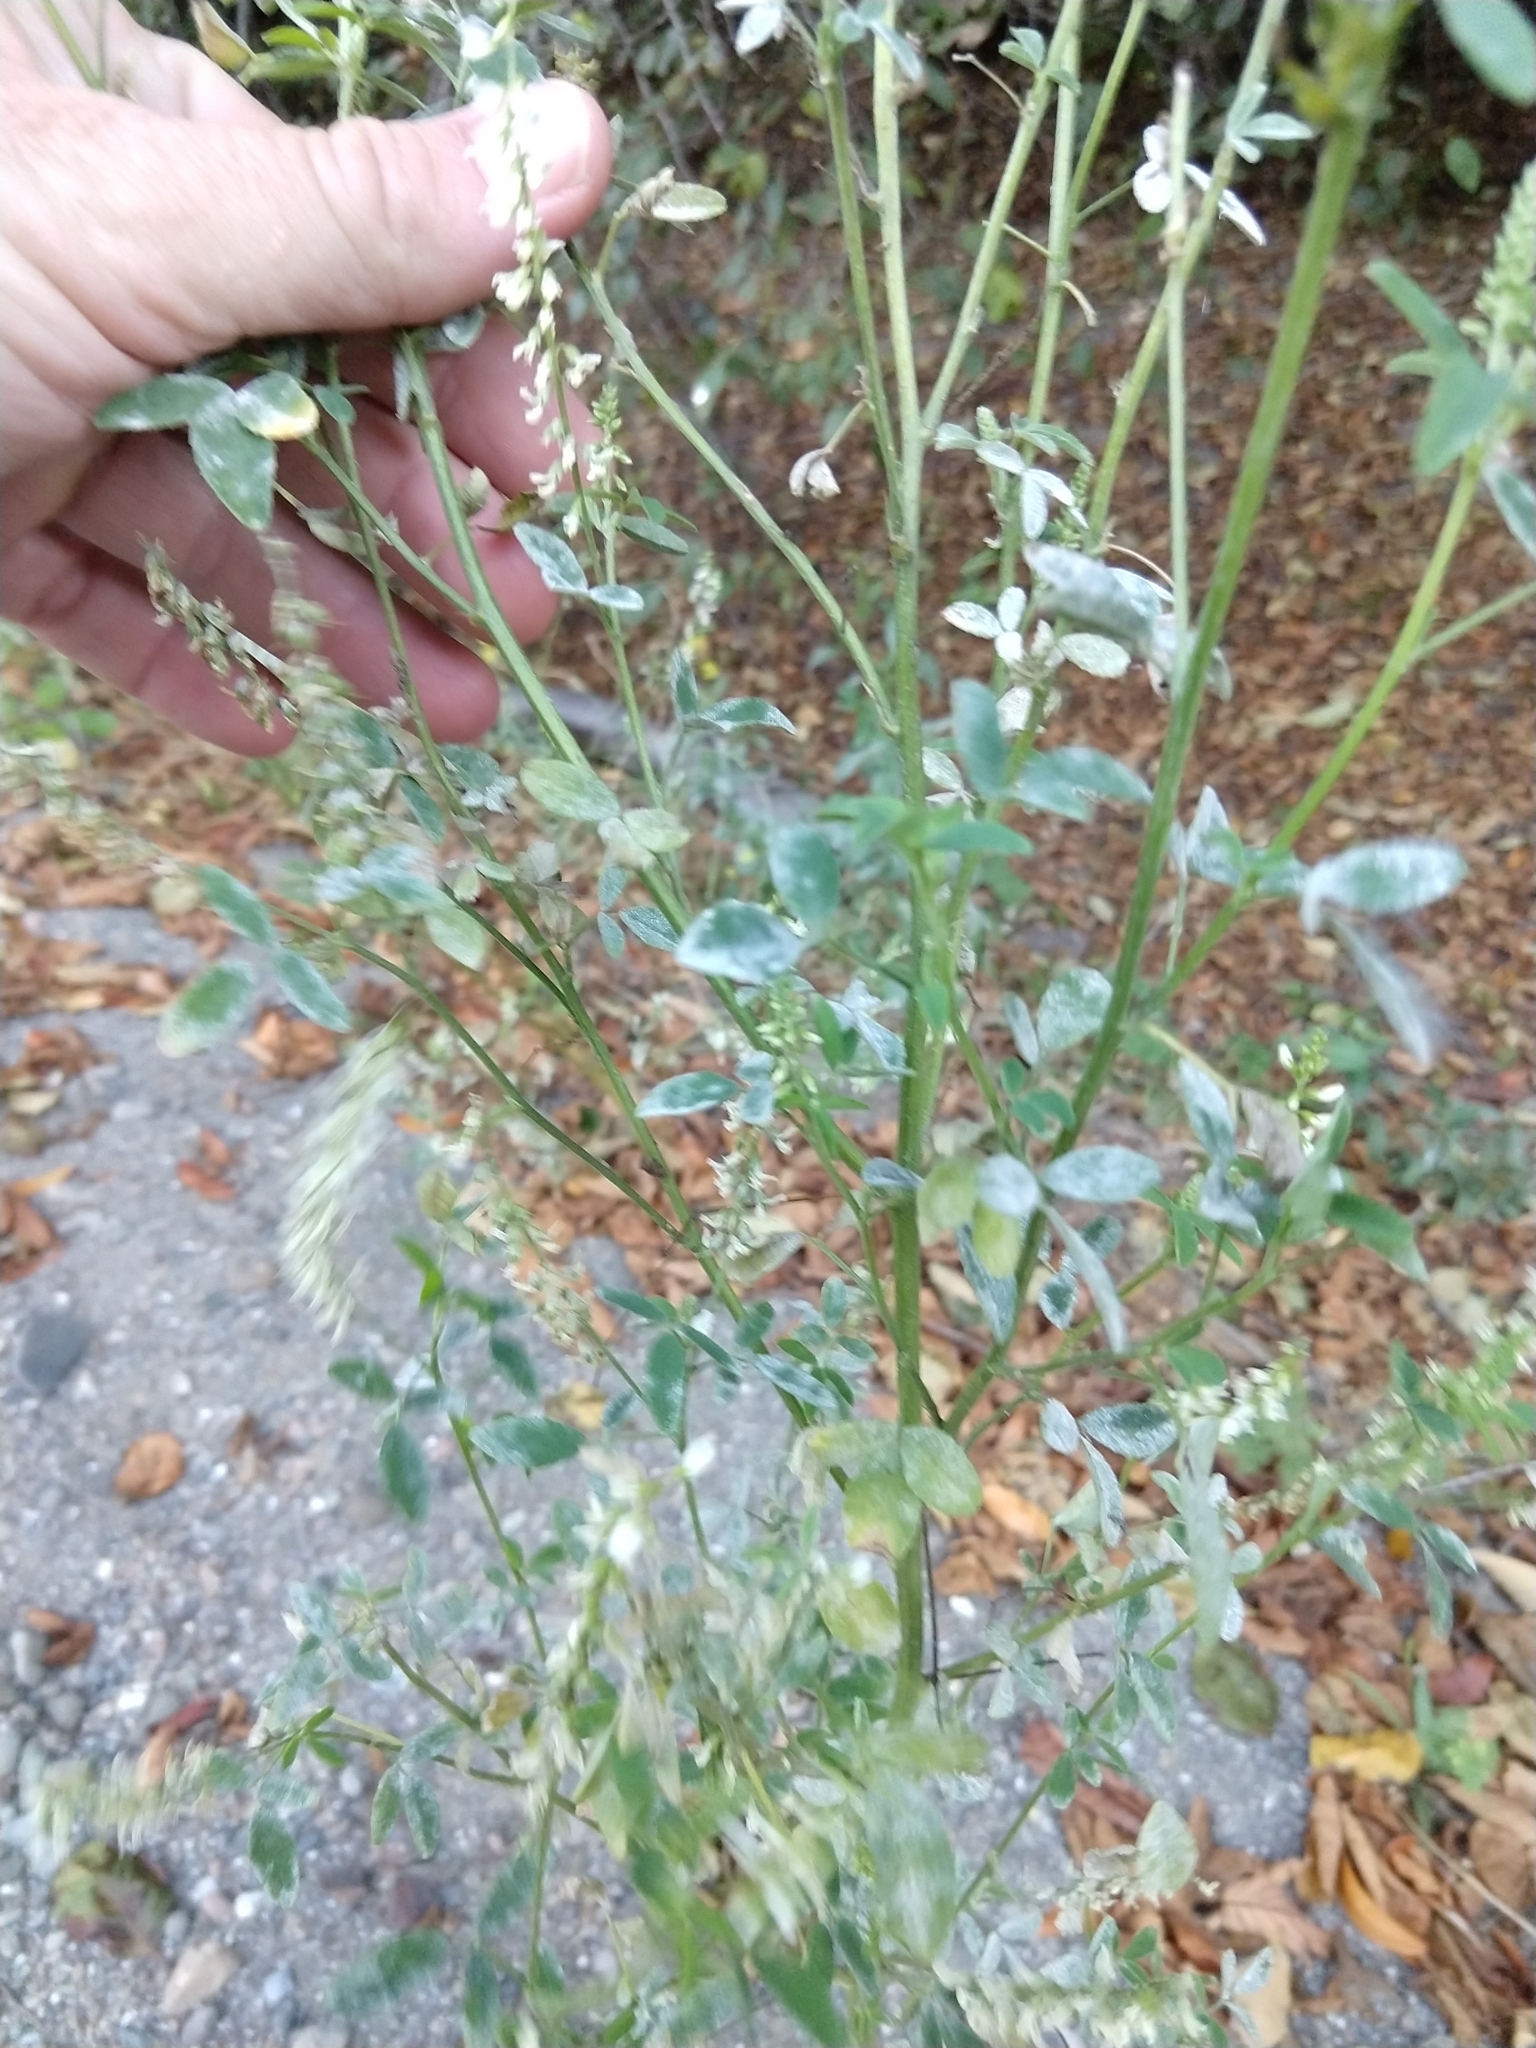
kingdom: Plantae
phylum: Tracheophyta
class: Magnoliopsida
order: Fabales
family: Fabaceae
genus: Melilotus
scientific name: Melilotus albus
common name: White melilot
